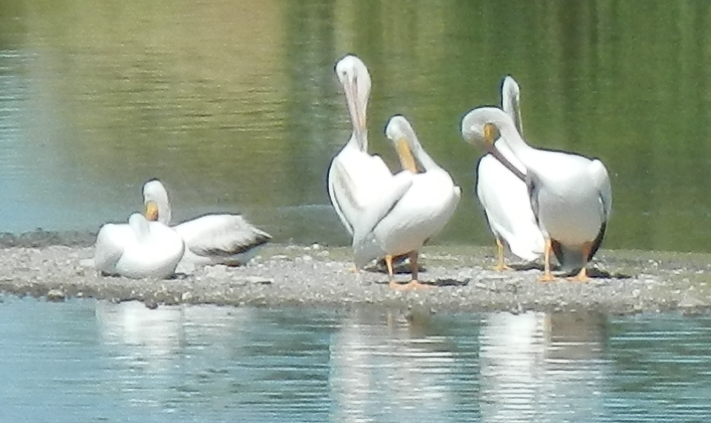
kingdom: Animalia
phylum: Chordata
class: Aves
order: Pelecaniformes
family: Pelecanidae
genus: Pelecanus
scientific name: Pelecanus erythrorhynchos
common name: American white pelican
